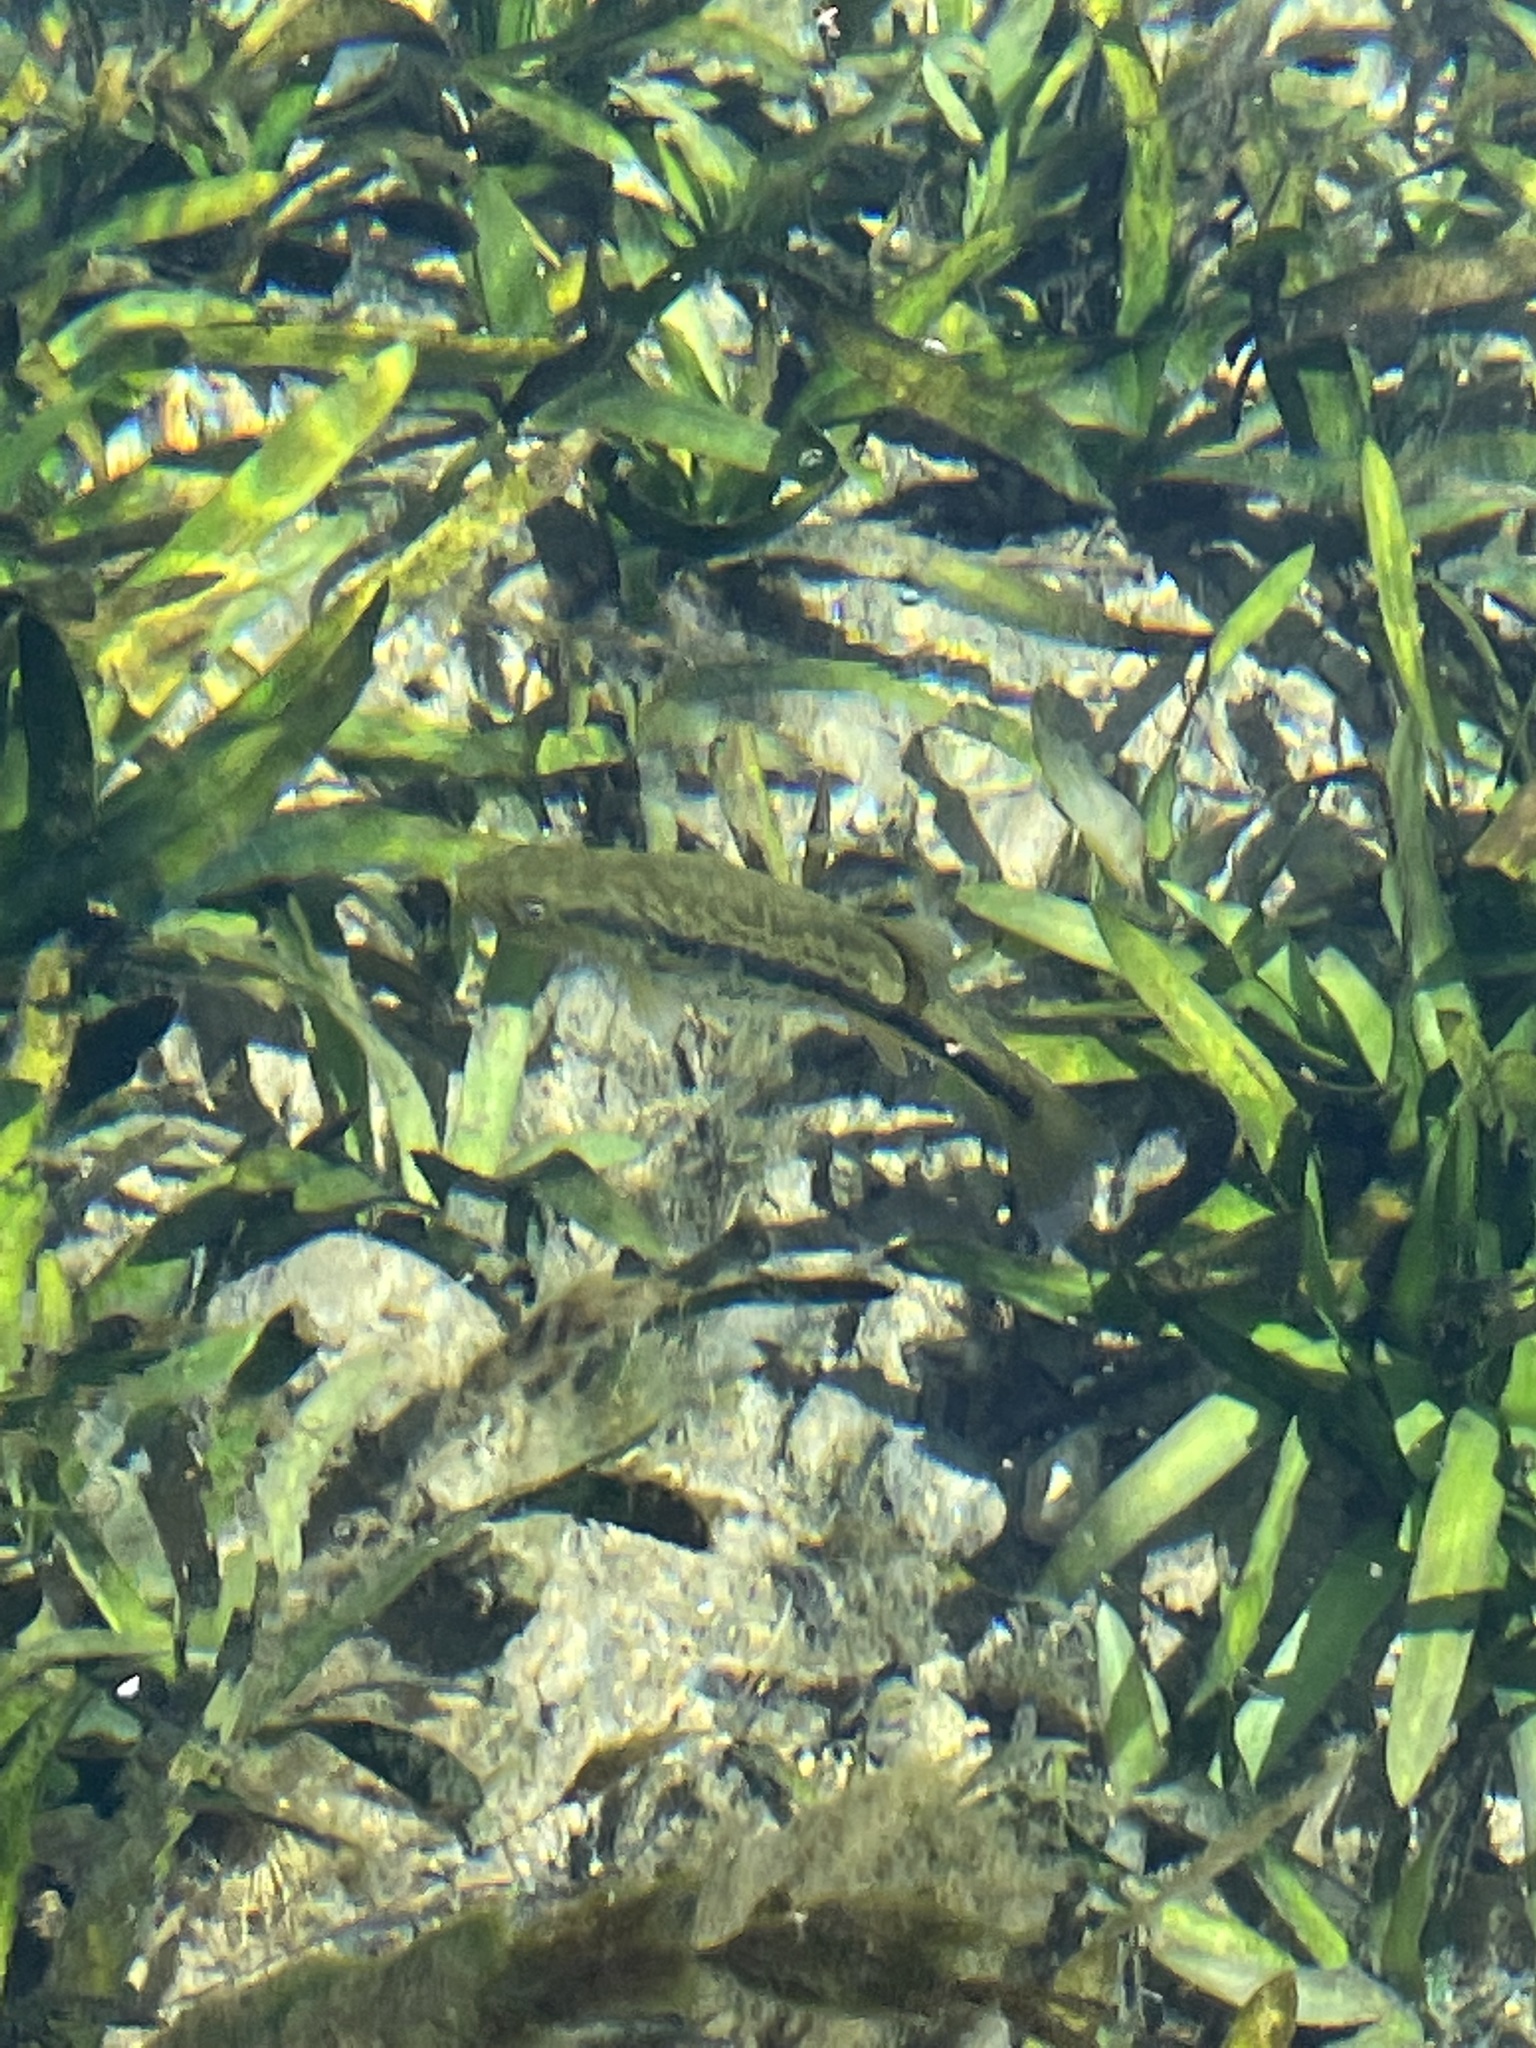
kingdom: Animalia
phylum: Chordata
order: Perciformes
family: Centrarchidae
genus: Micropterus
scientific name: Micropterus
